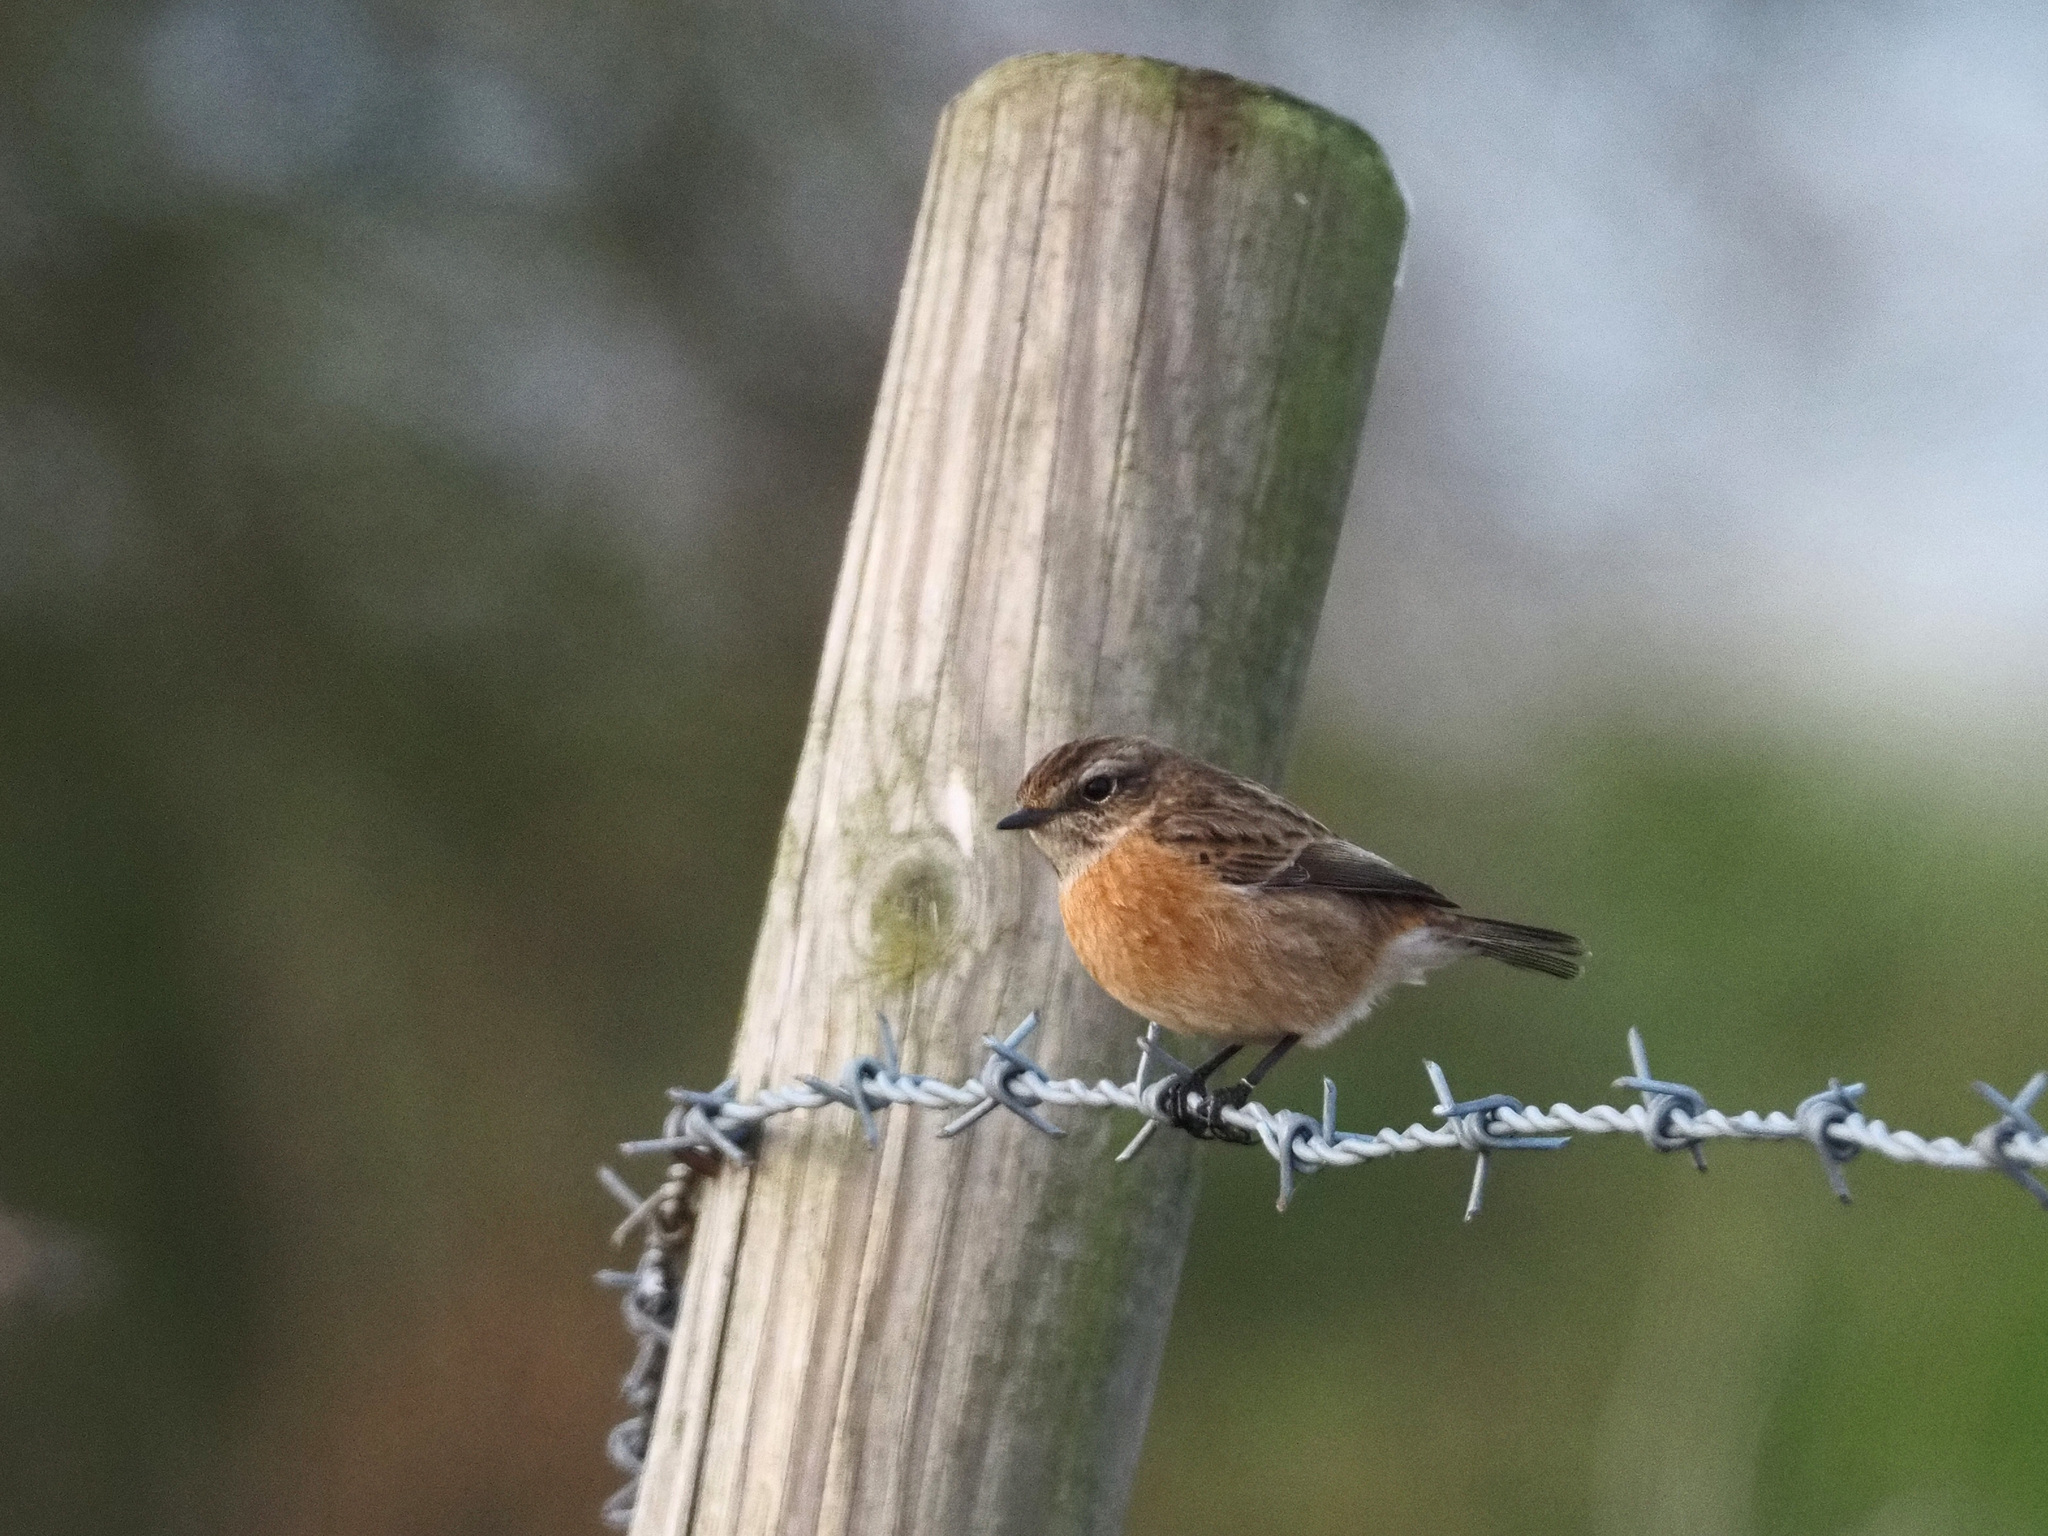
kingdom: Animalia
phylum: Chordata
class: Aves
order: Passeriformes
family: Muscicapidae
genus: Saxicola
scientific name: Saxicola rubicola
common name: European stonechat
